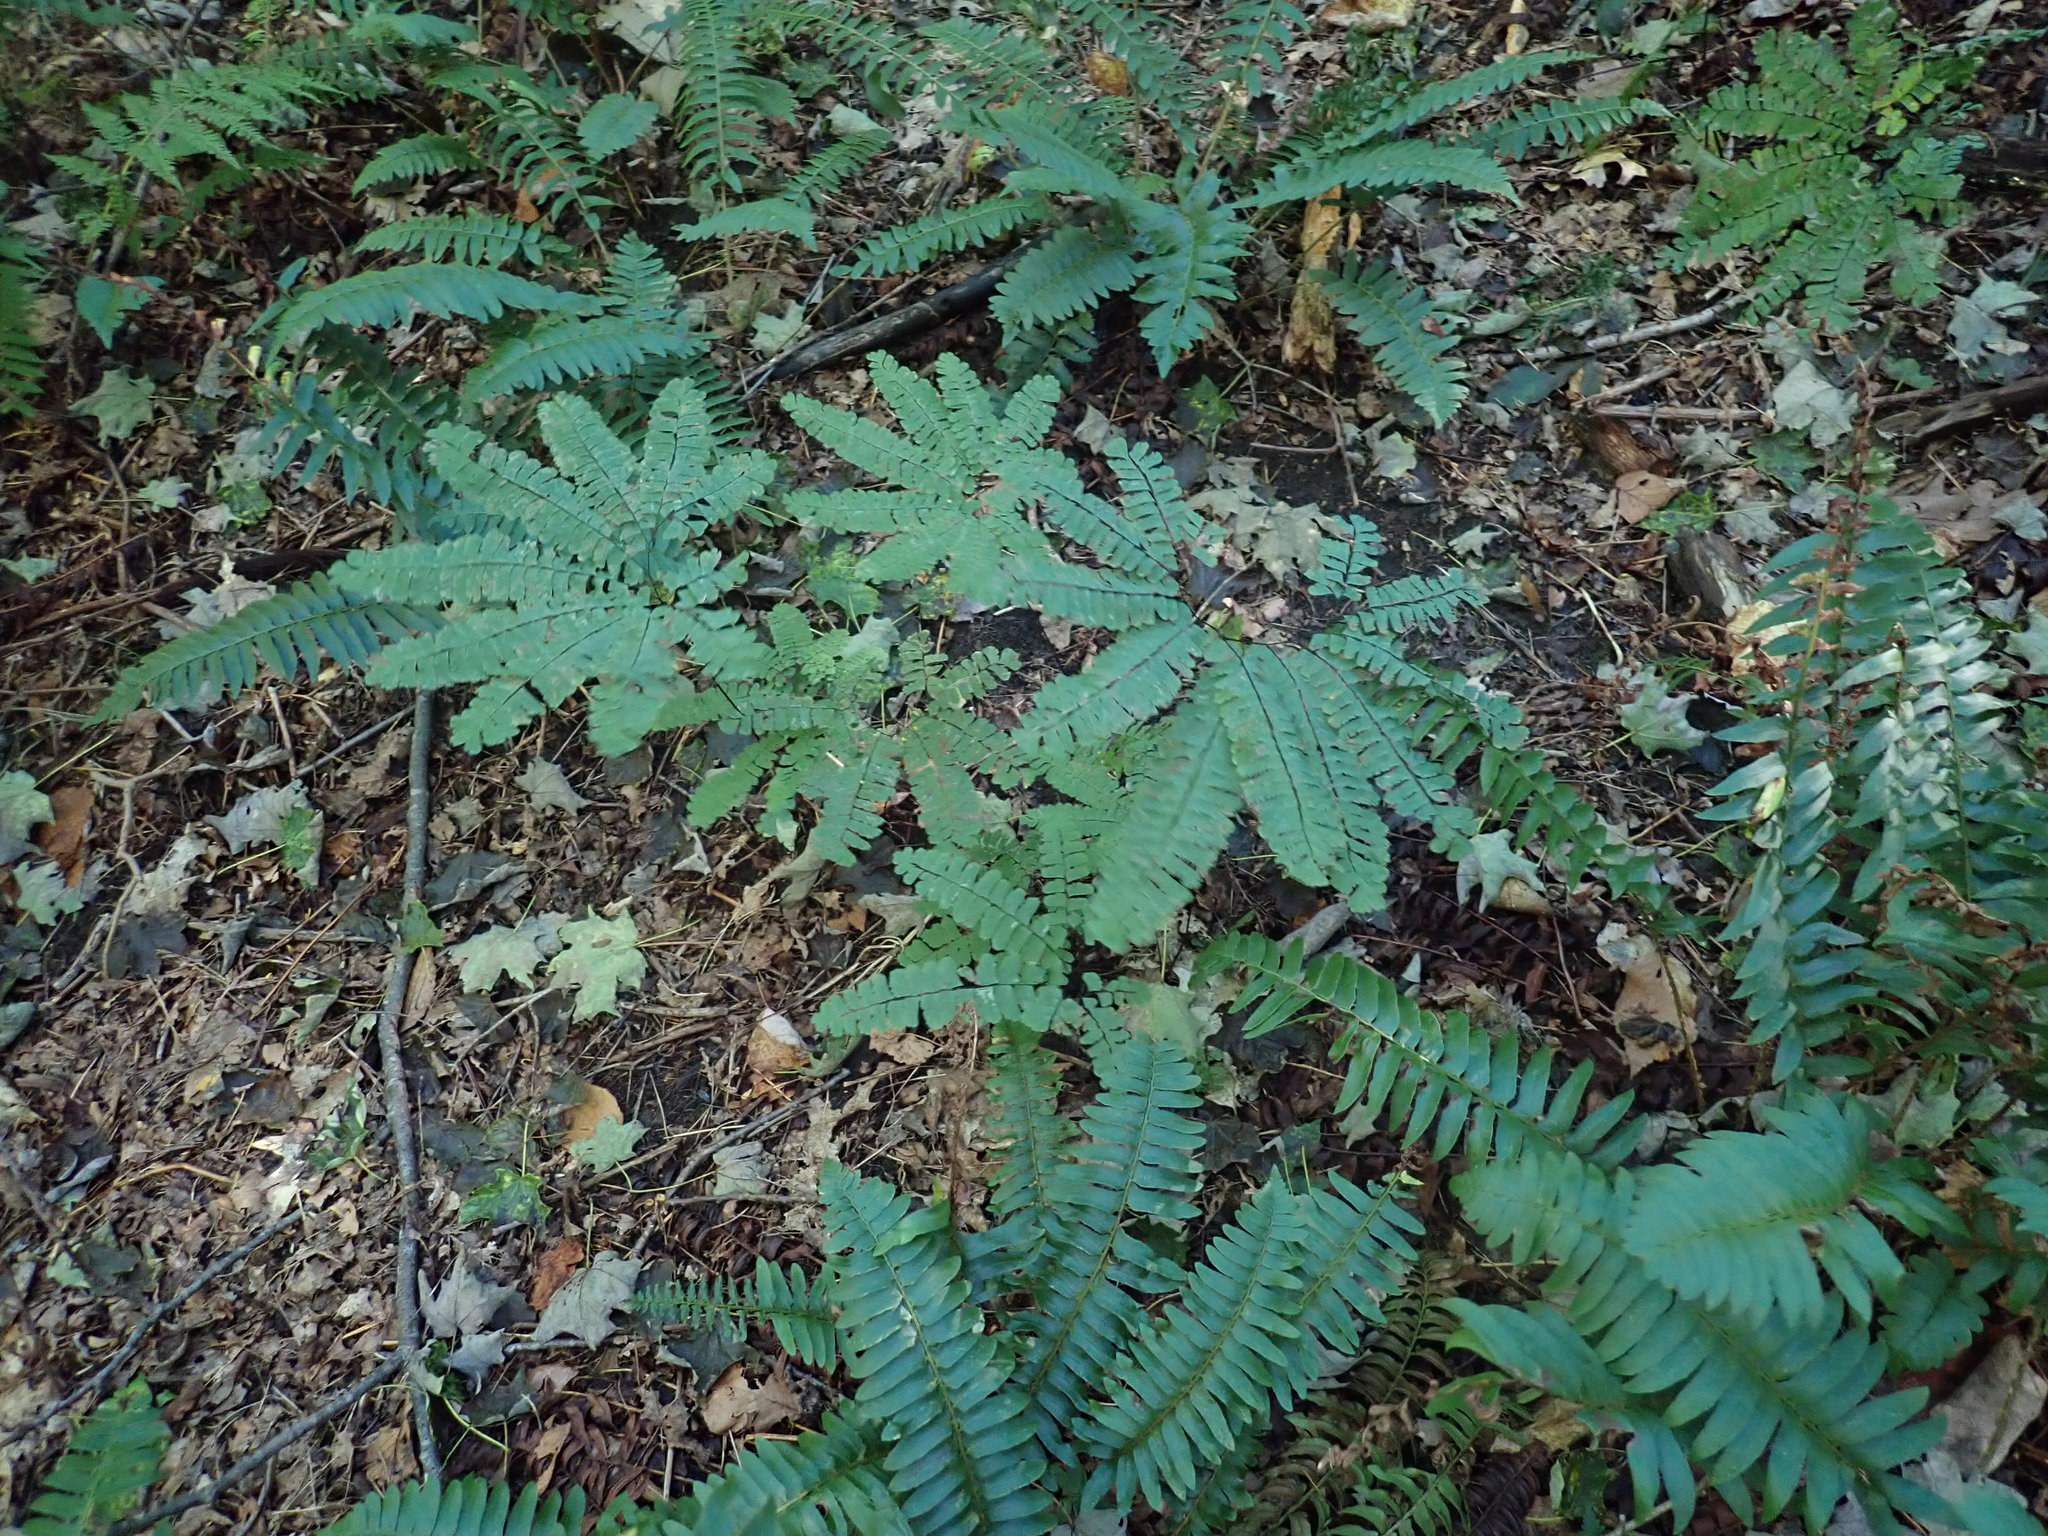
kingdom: Plantae
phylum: Tracheophyta
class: Polypodiopsida
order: Polypodiales
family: Pteridaceae
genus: Adiantum
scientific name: Adiantum pedatum
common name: Five-finger fern
